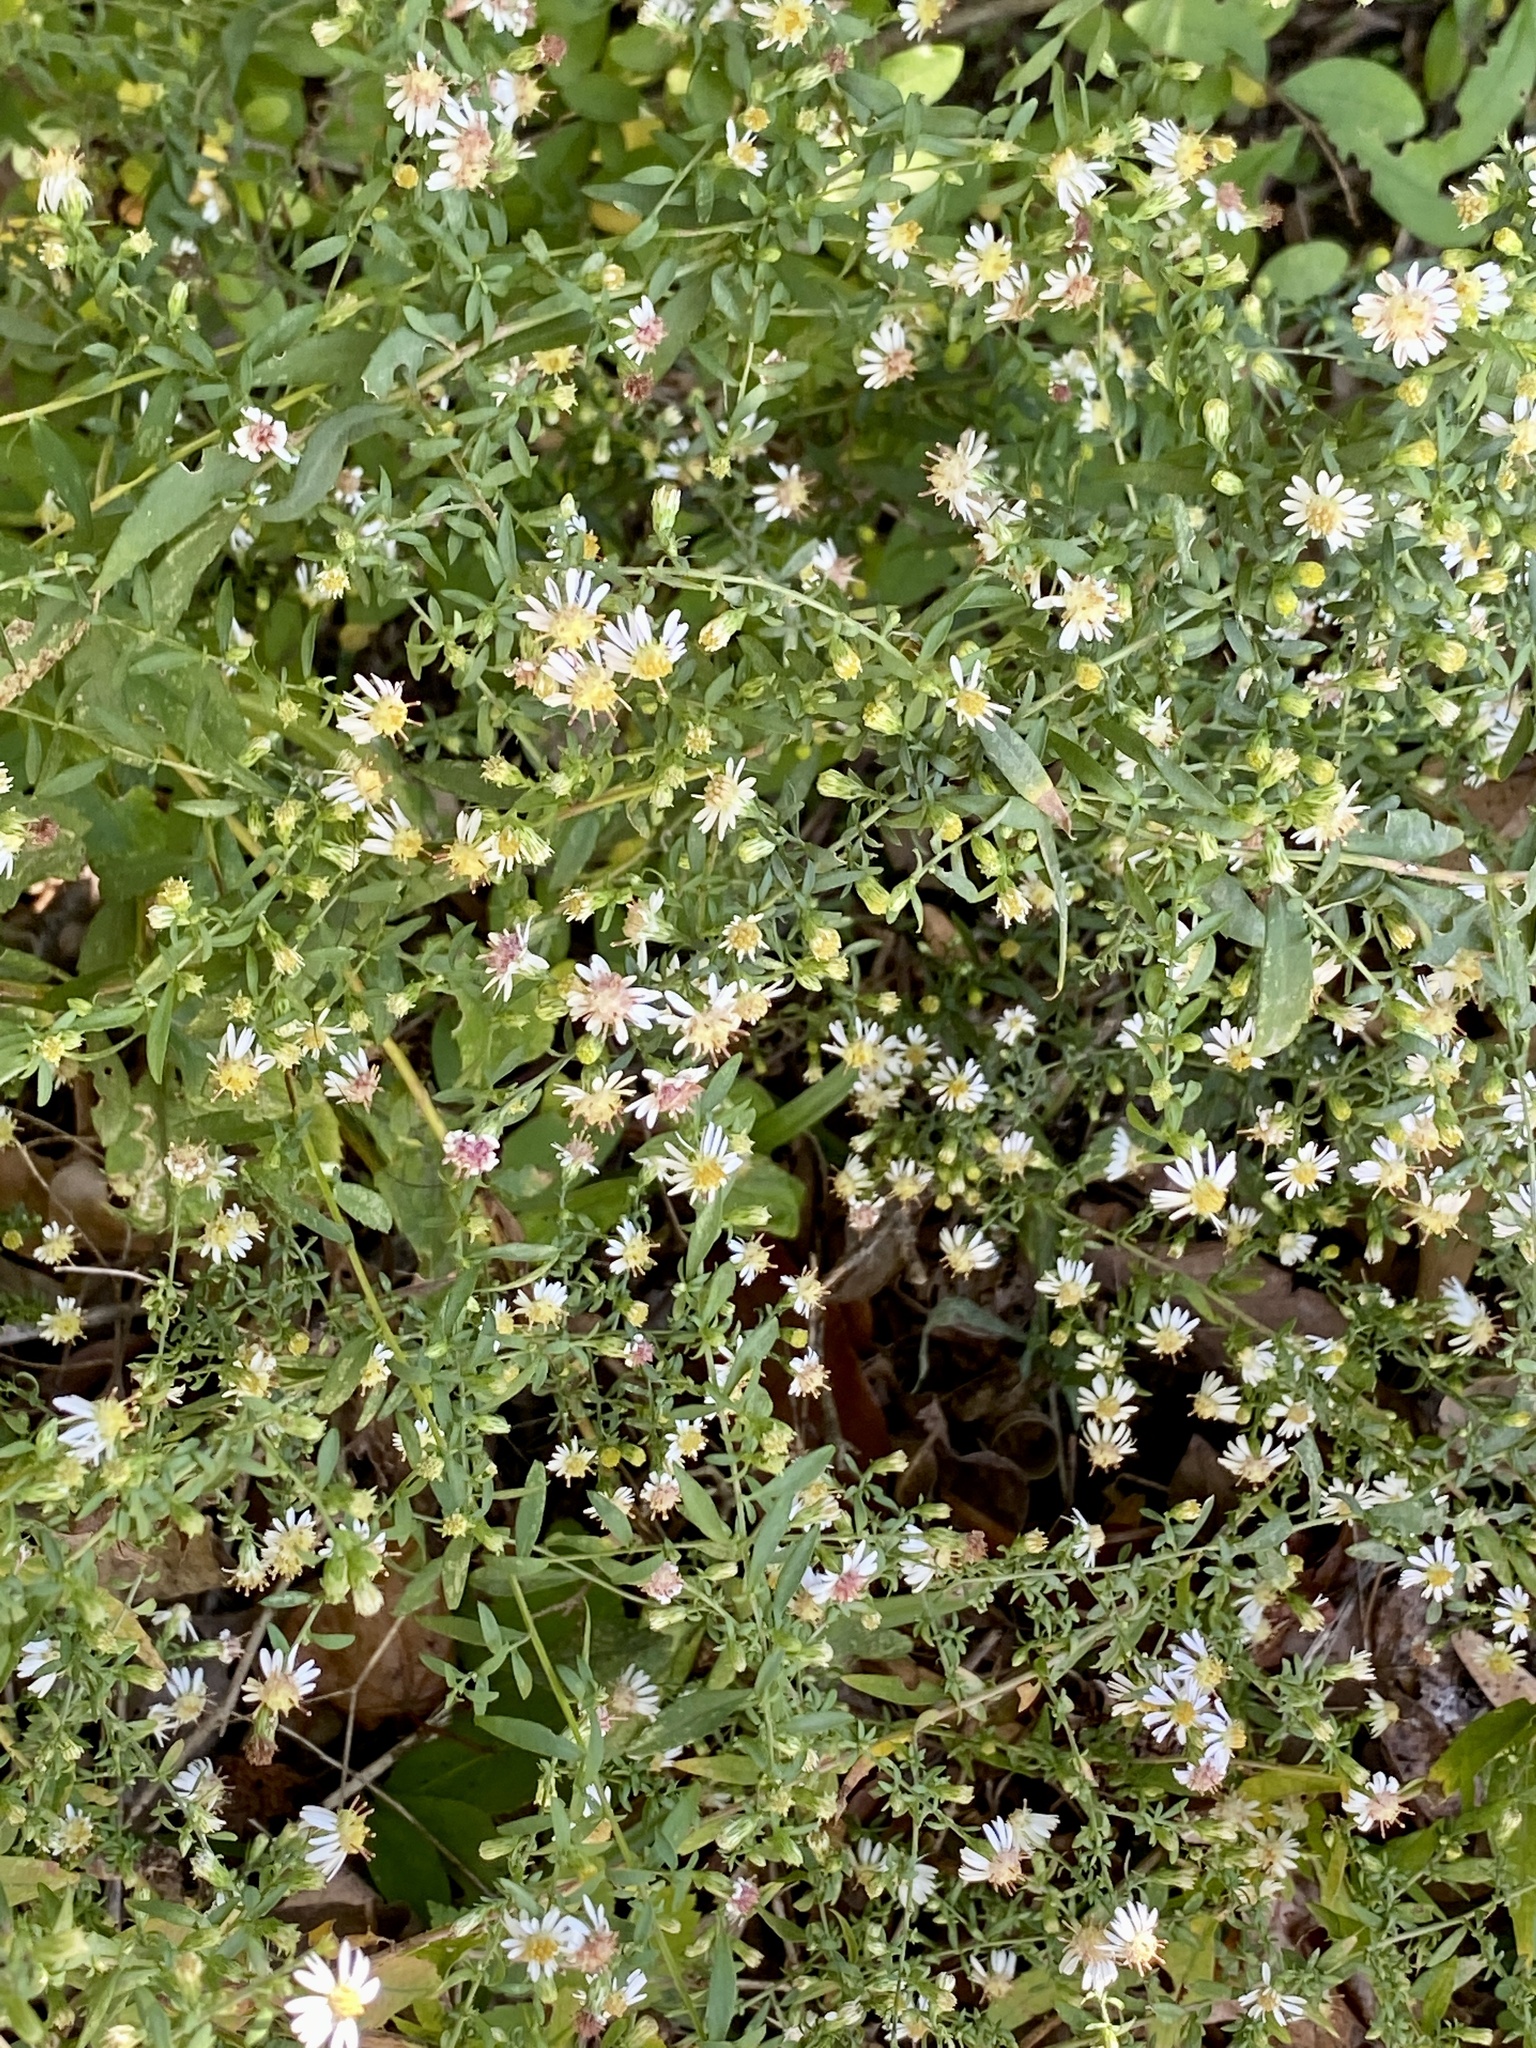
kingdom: Plantae
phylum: Tracheophyta
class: Magnoliopsida
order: Asterales
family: Asteraceae
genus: Symphyotrichum
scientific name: Symphyotrichum lateriflorum
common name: Calico aster
